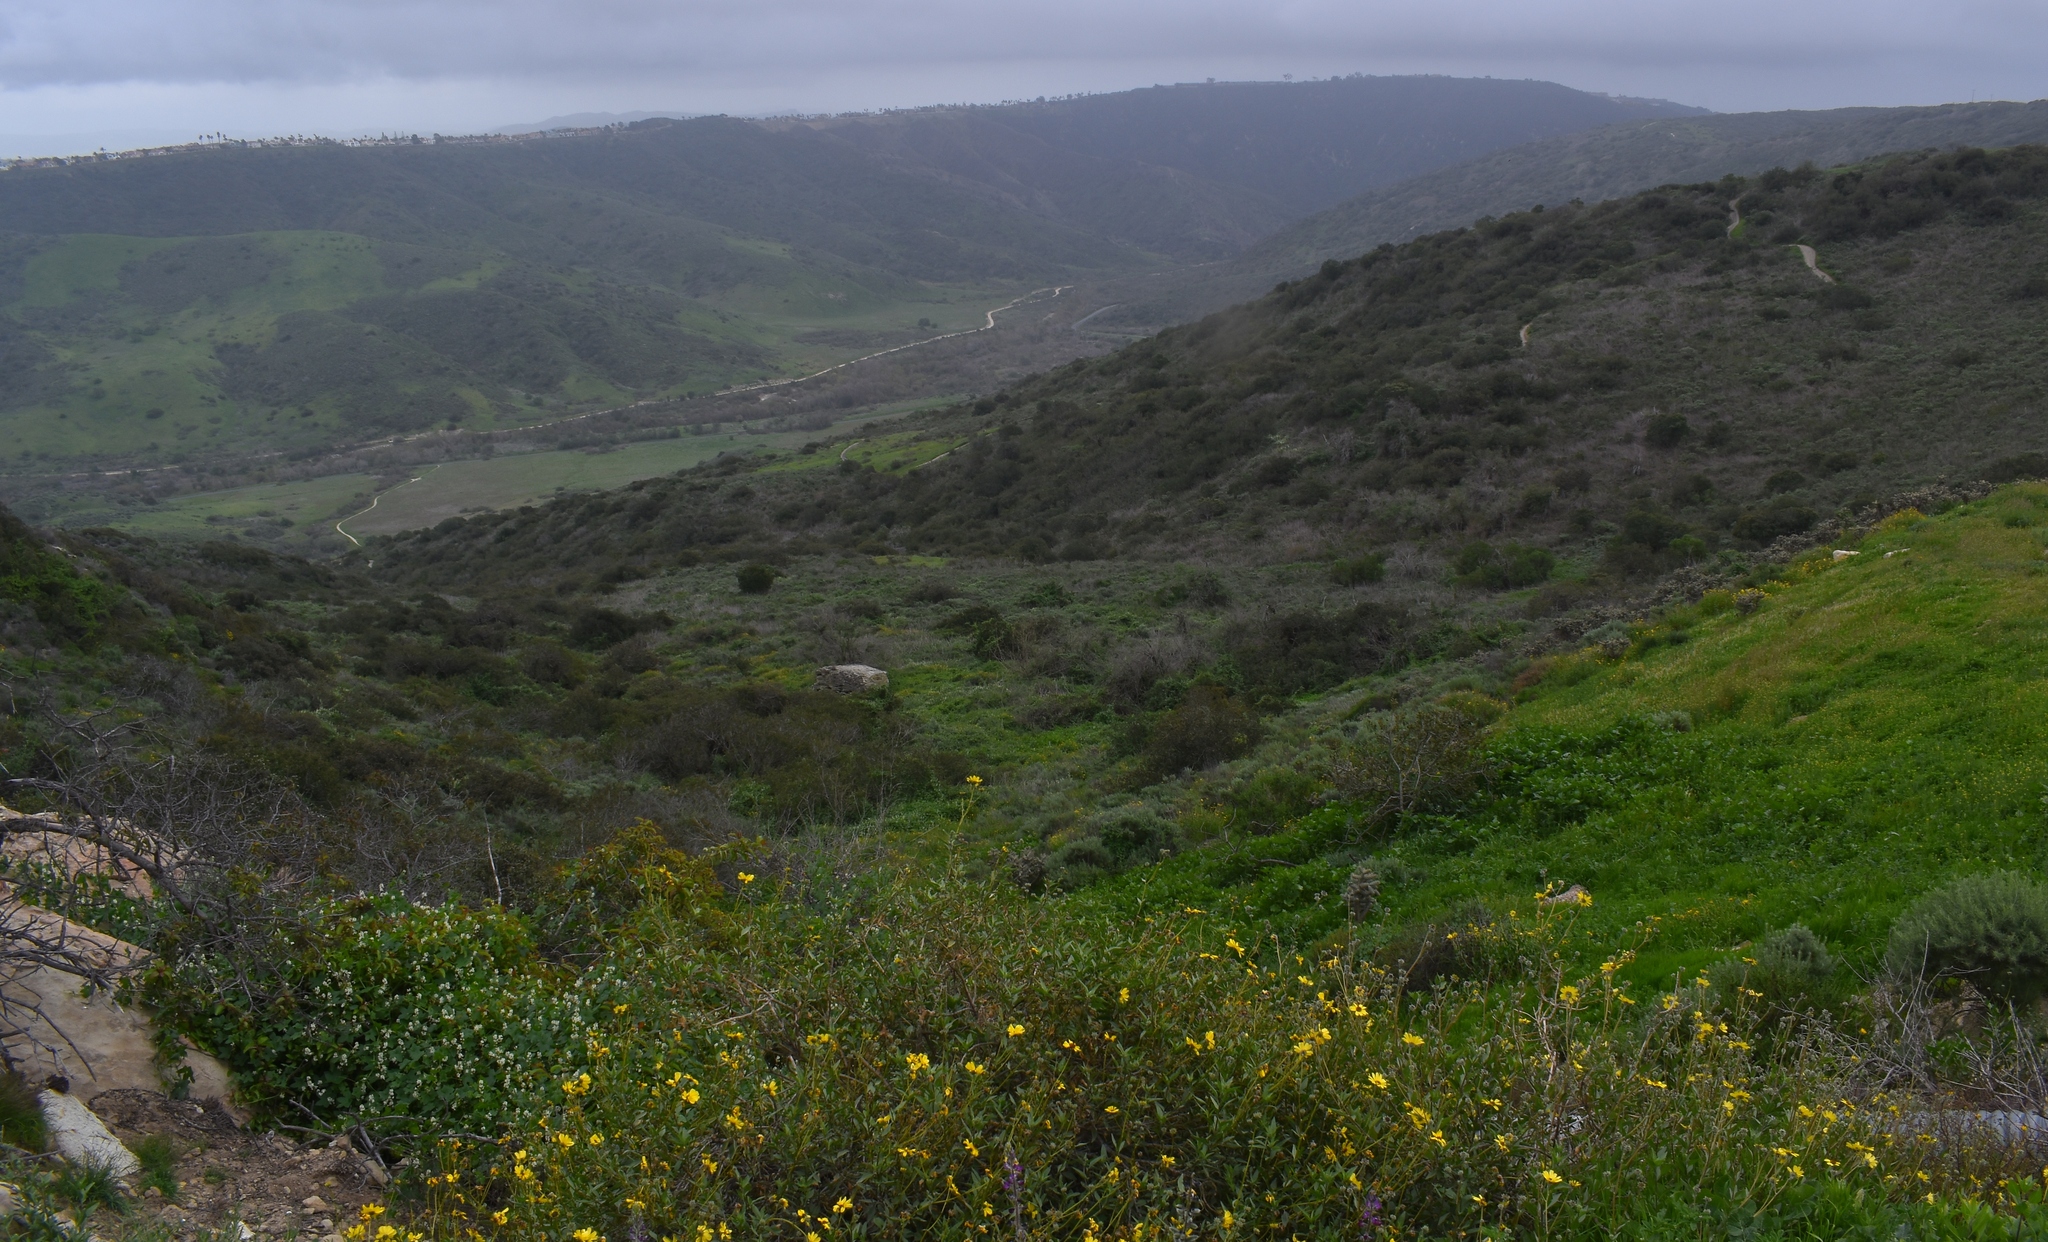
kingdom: Plantae
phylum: Tracheophyta
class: Magnoliopsida
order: Boraginales
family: Hydrophyllaceae
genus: Phacelia
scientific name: Phacelia parryi
